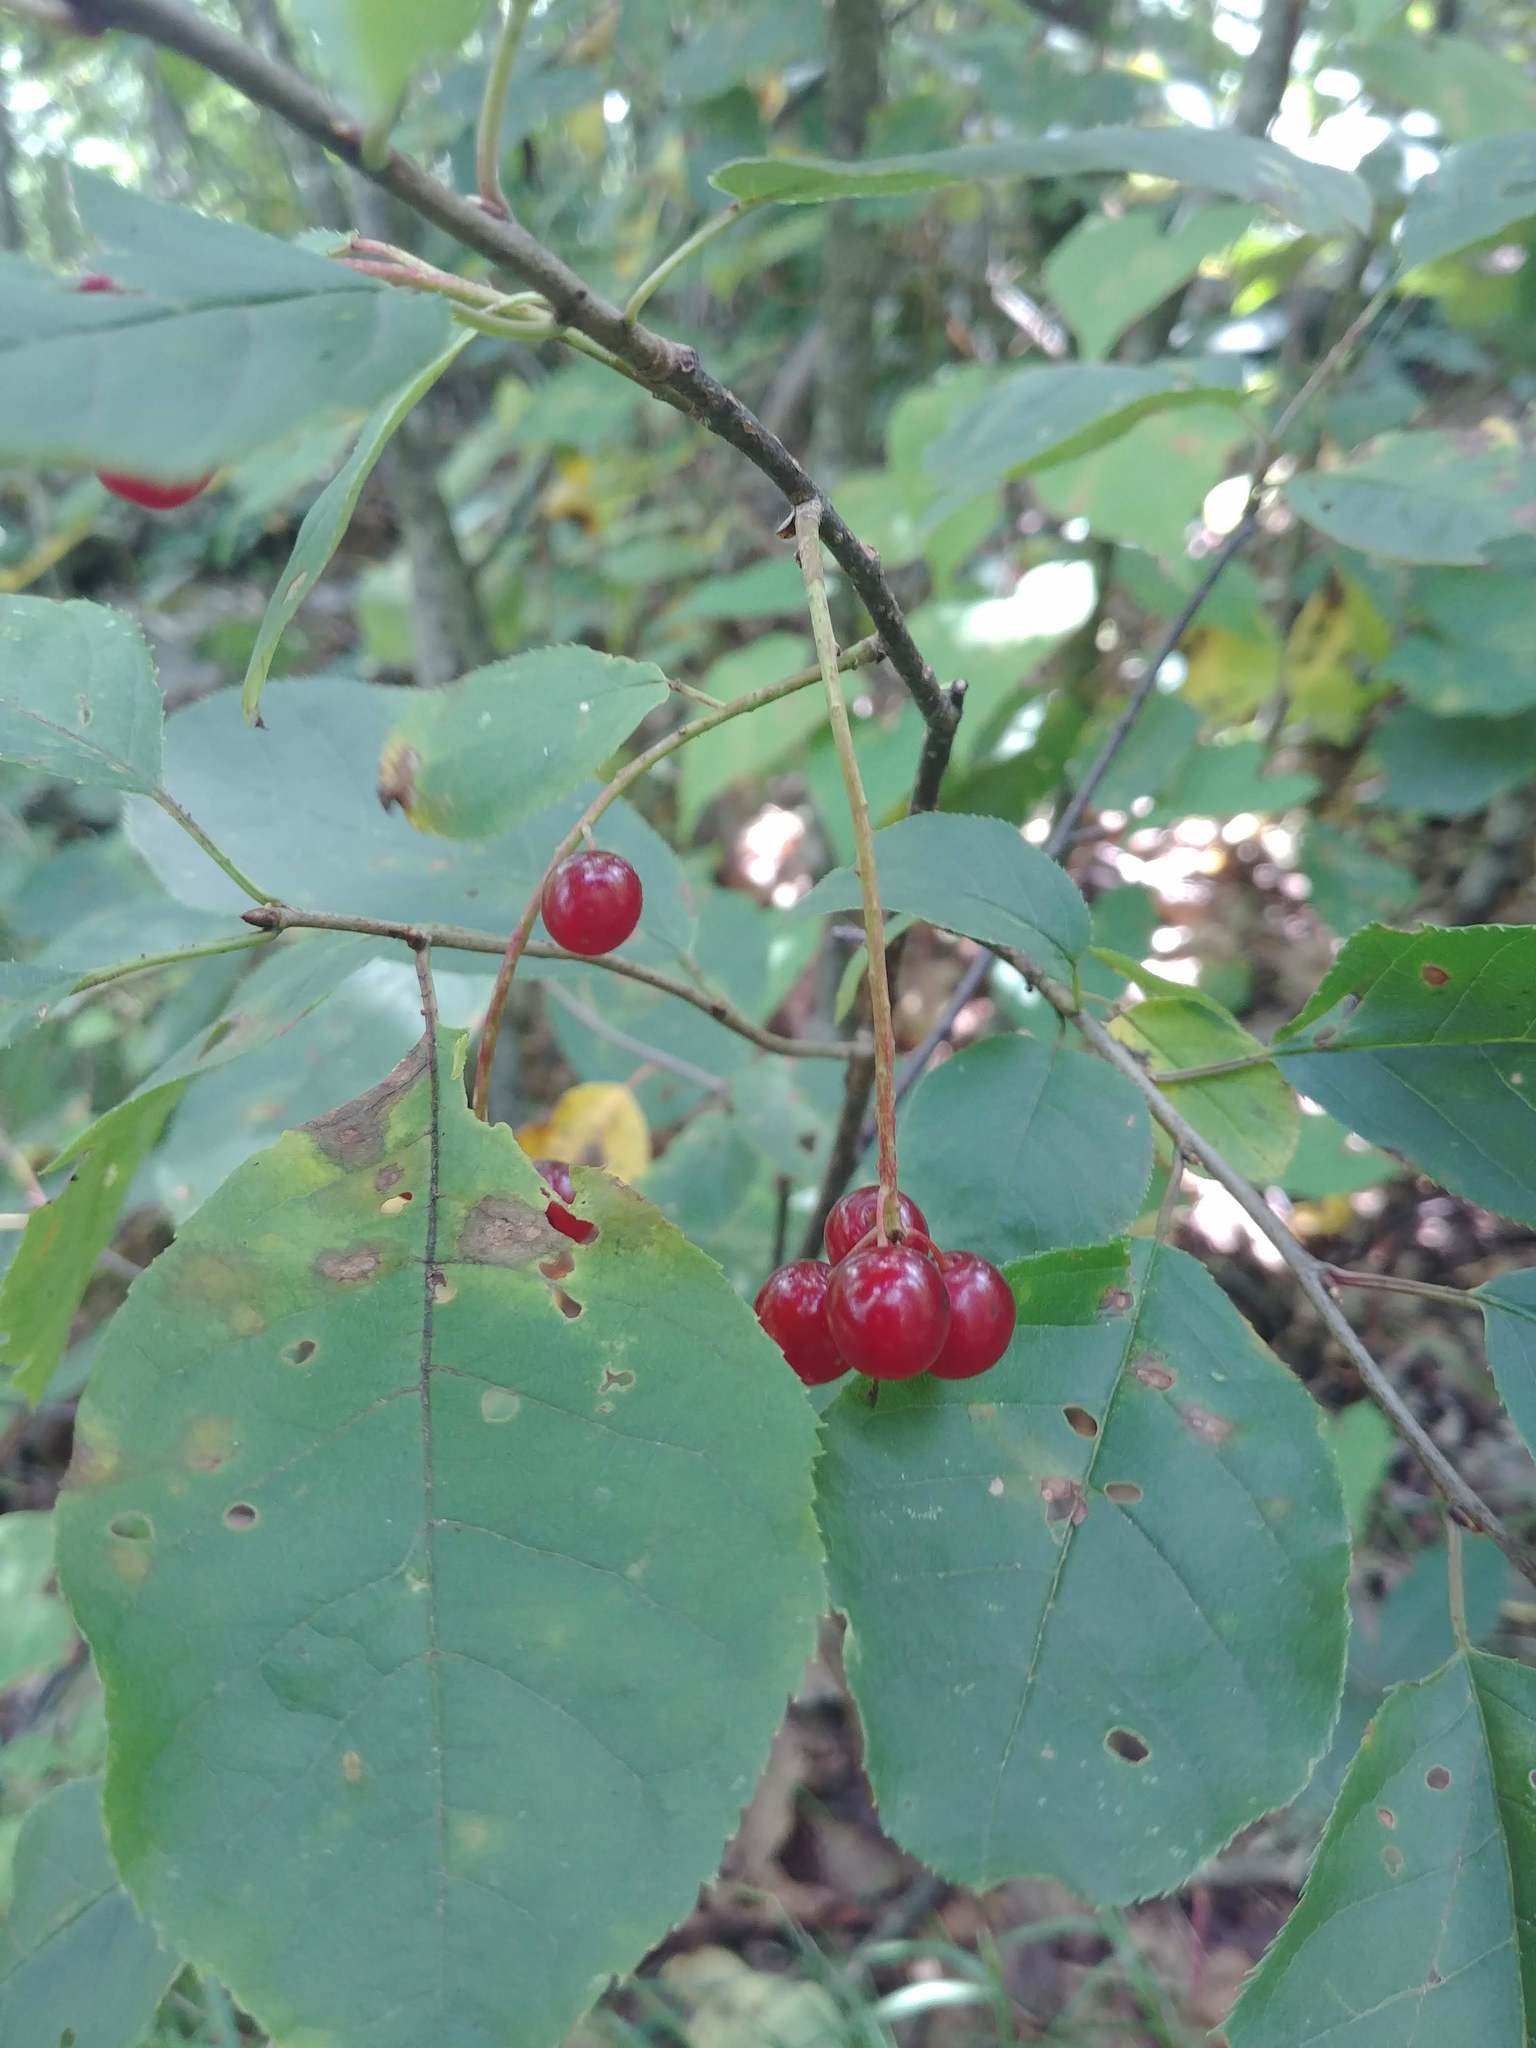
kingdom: Plantae
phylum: Tracheophyta
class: Magnoliopsida
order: Rosales
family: Rosaceae
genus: Prunus
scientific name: Prunus virginiana
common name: Chokecherry
